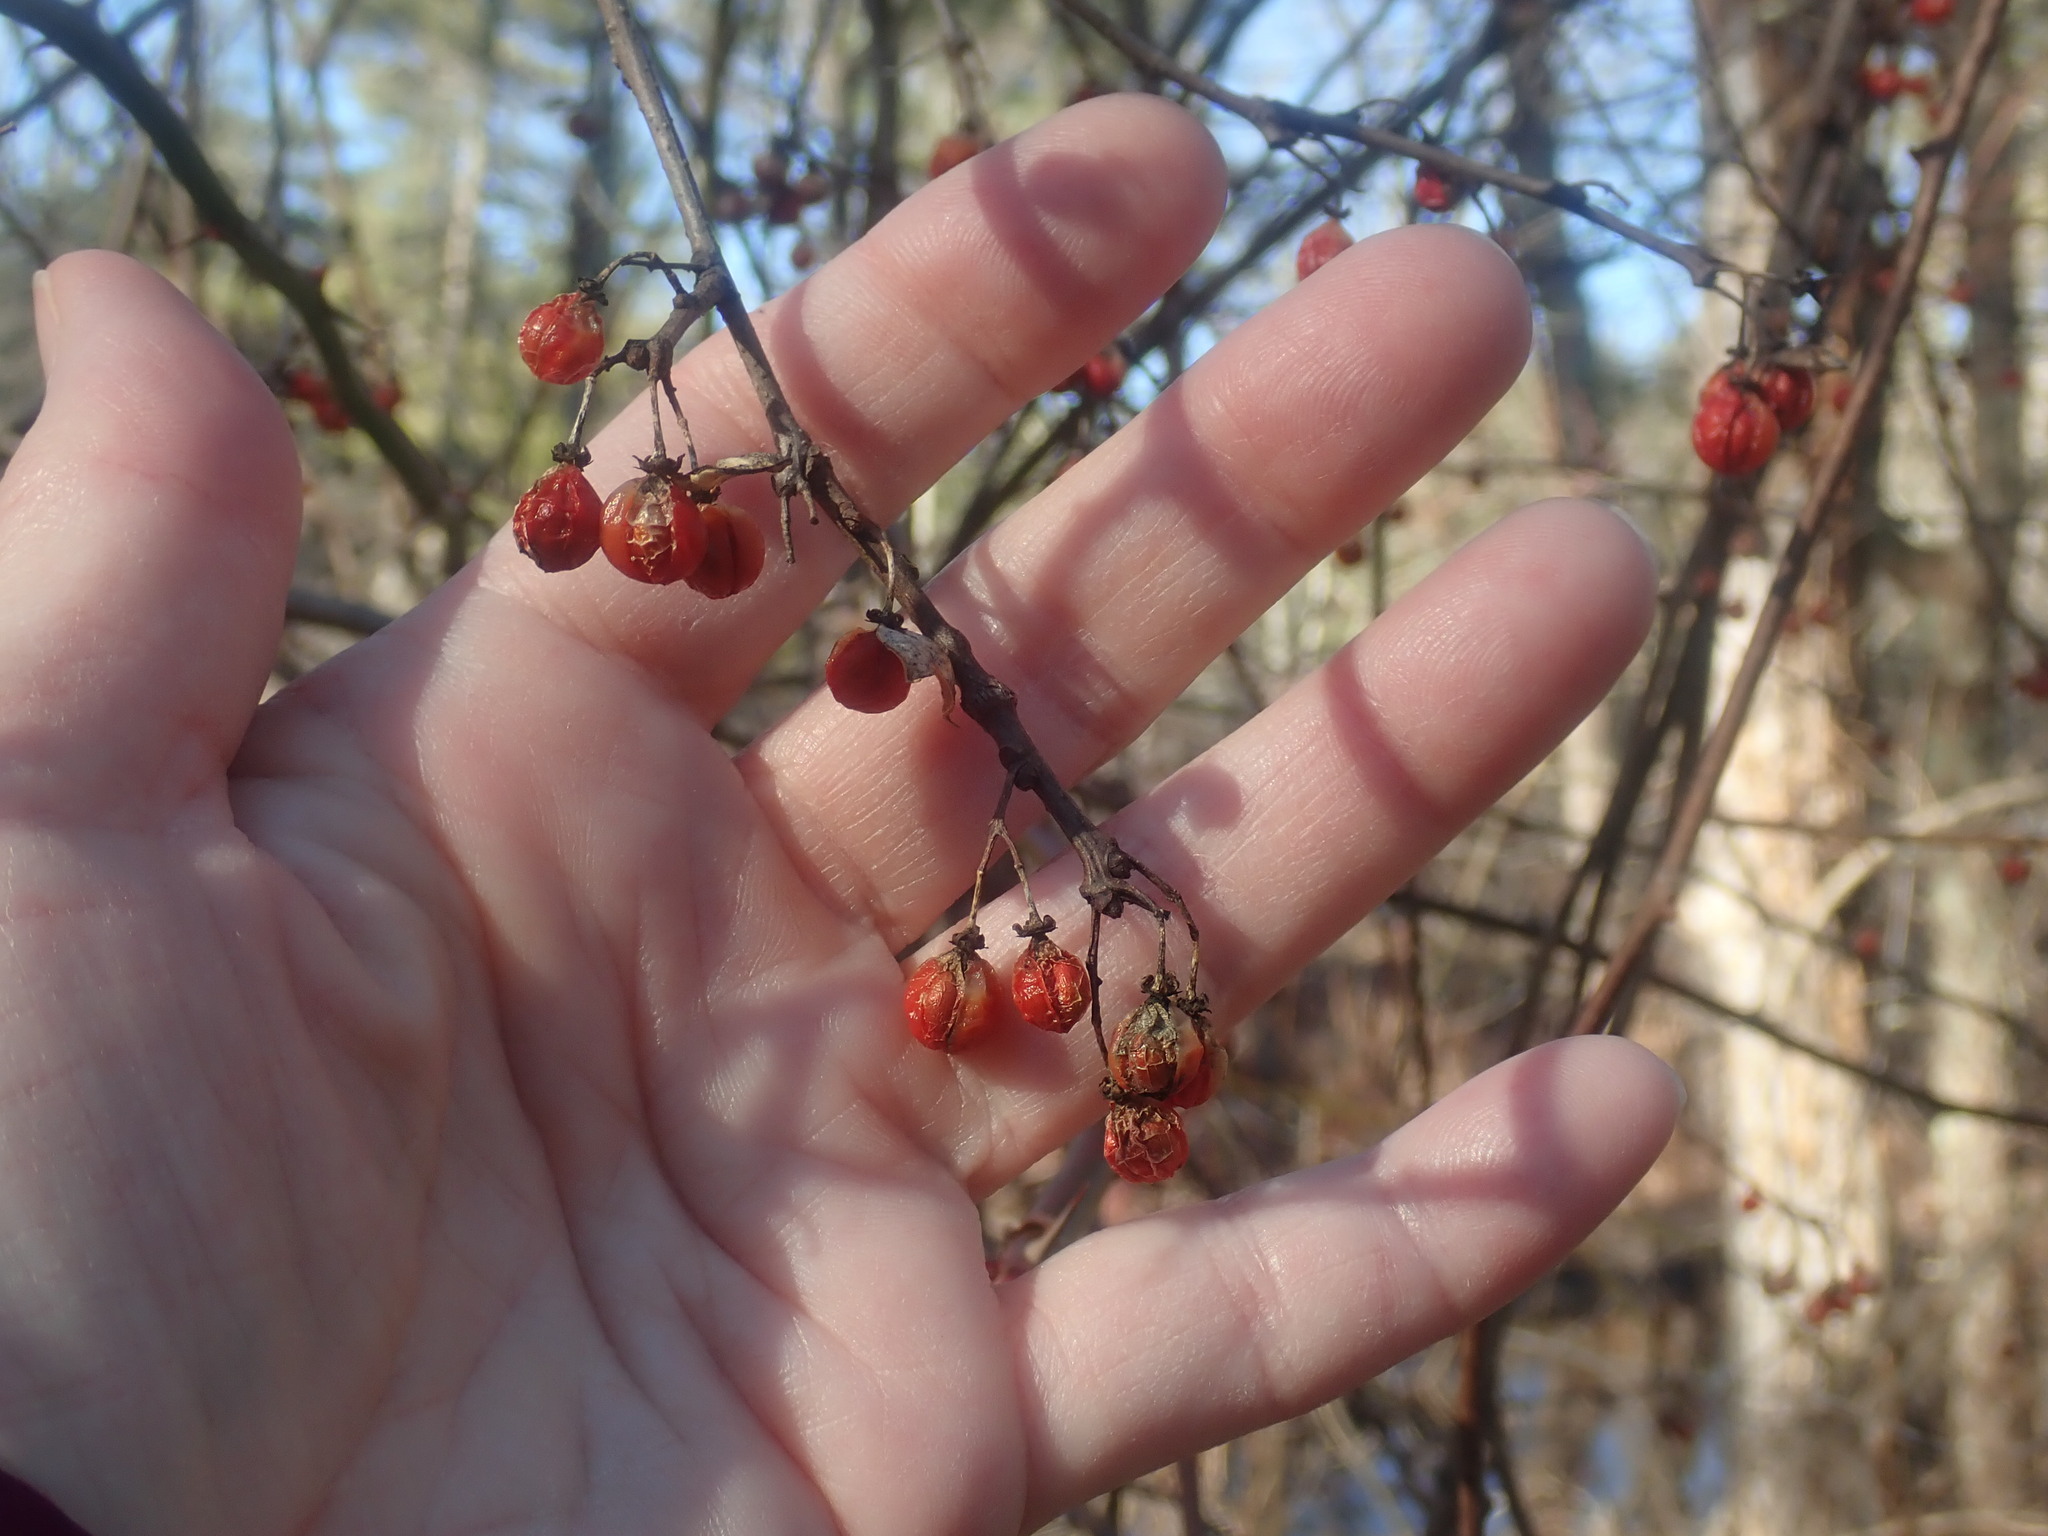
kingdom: Plantae
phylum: Tracheophyta
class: Magnoliopsida
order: Celastrales
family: Celastraceae
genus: Celastrus
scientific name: Celastrus orbiculatus
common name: Oriental bittersweet
